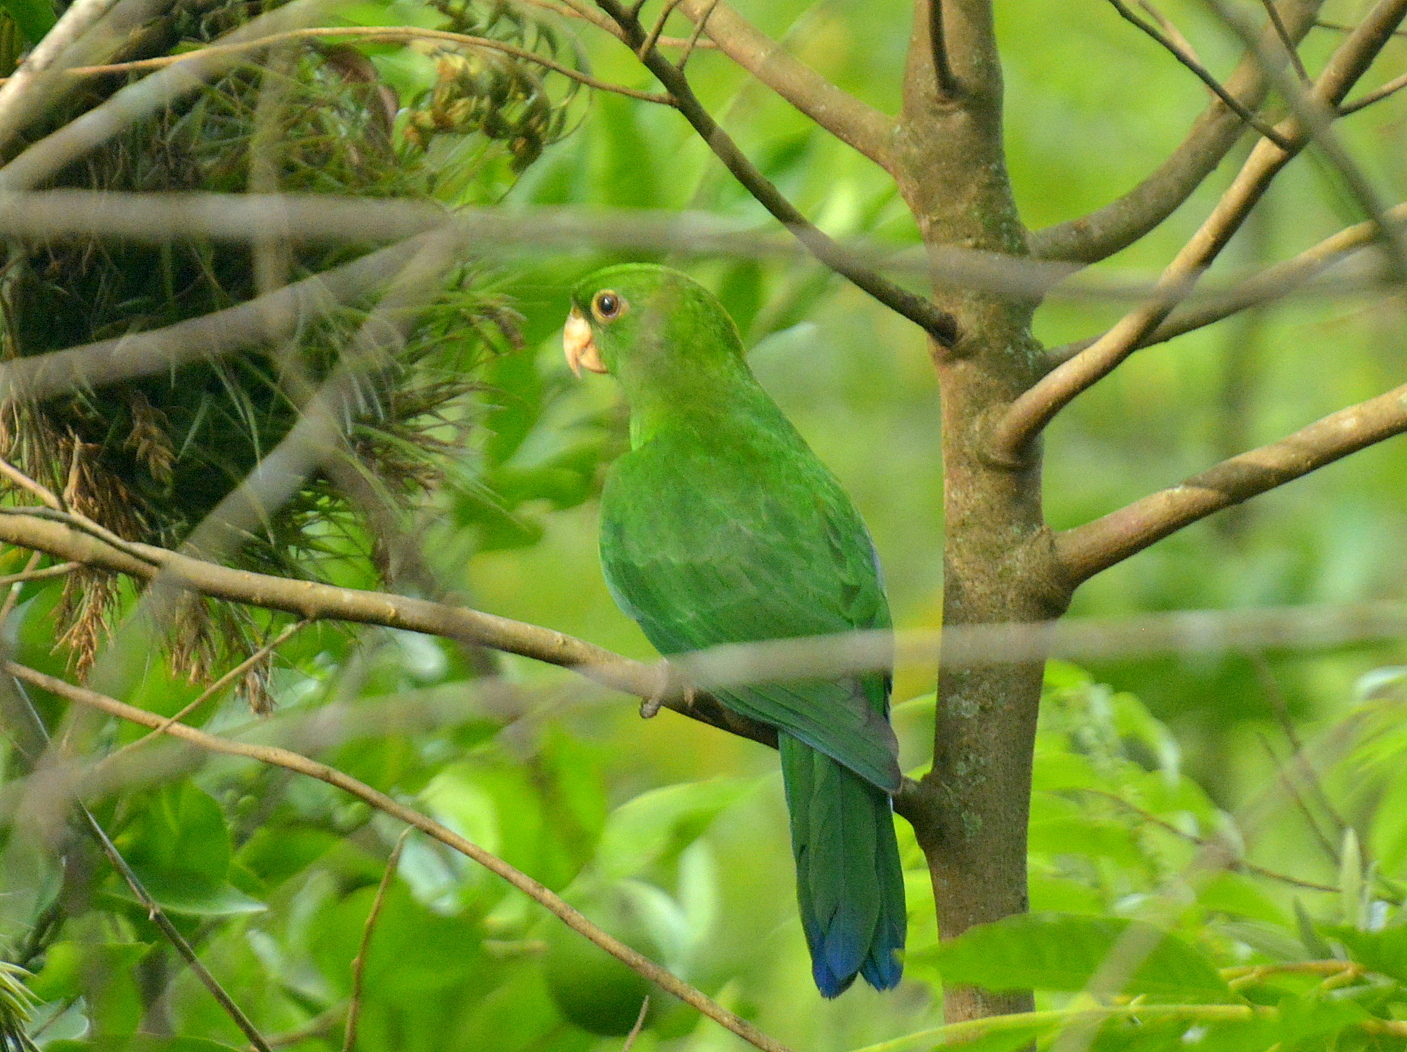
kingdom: Animalia
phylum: Chordata
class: Aves
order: Psittaciformes
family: Psittacidae
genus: Triclaria
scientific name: Triclaria malachitacea
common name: Blue-bellied parrot
